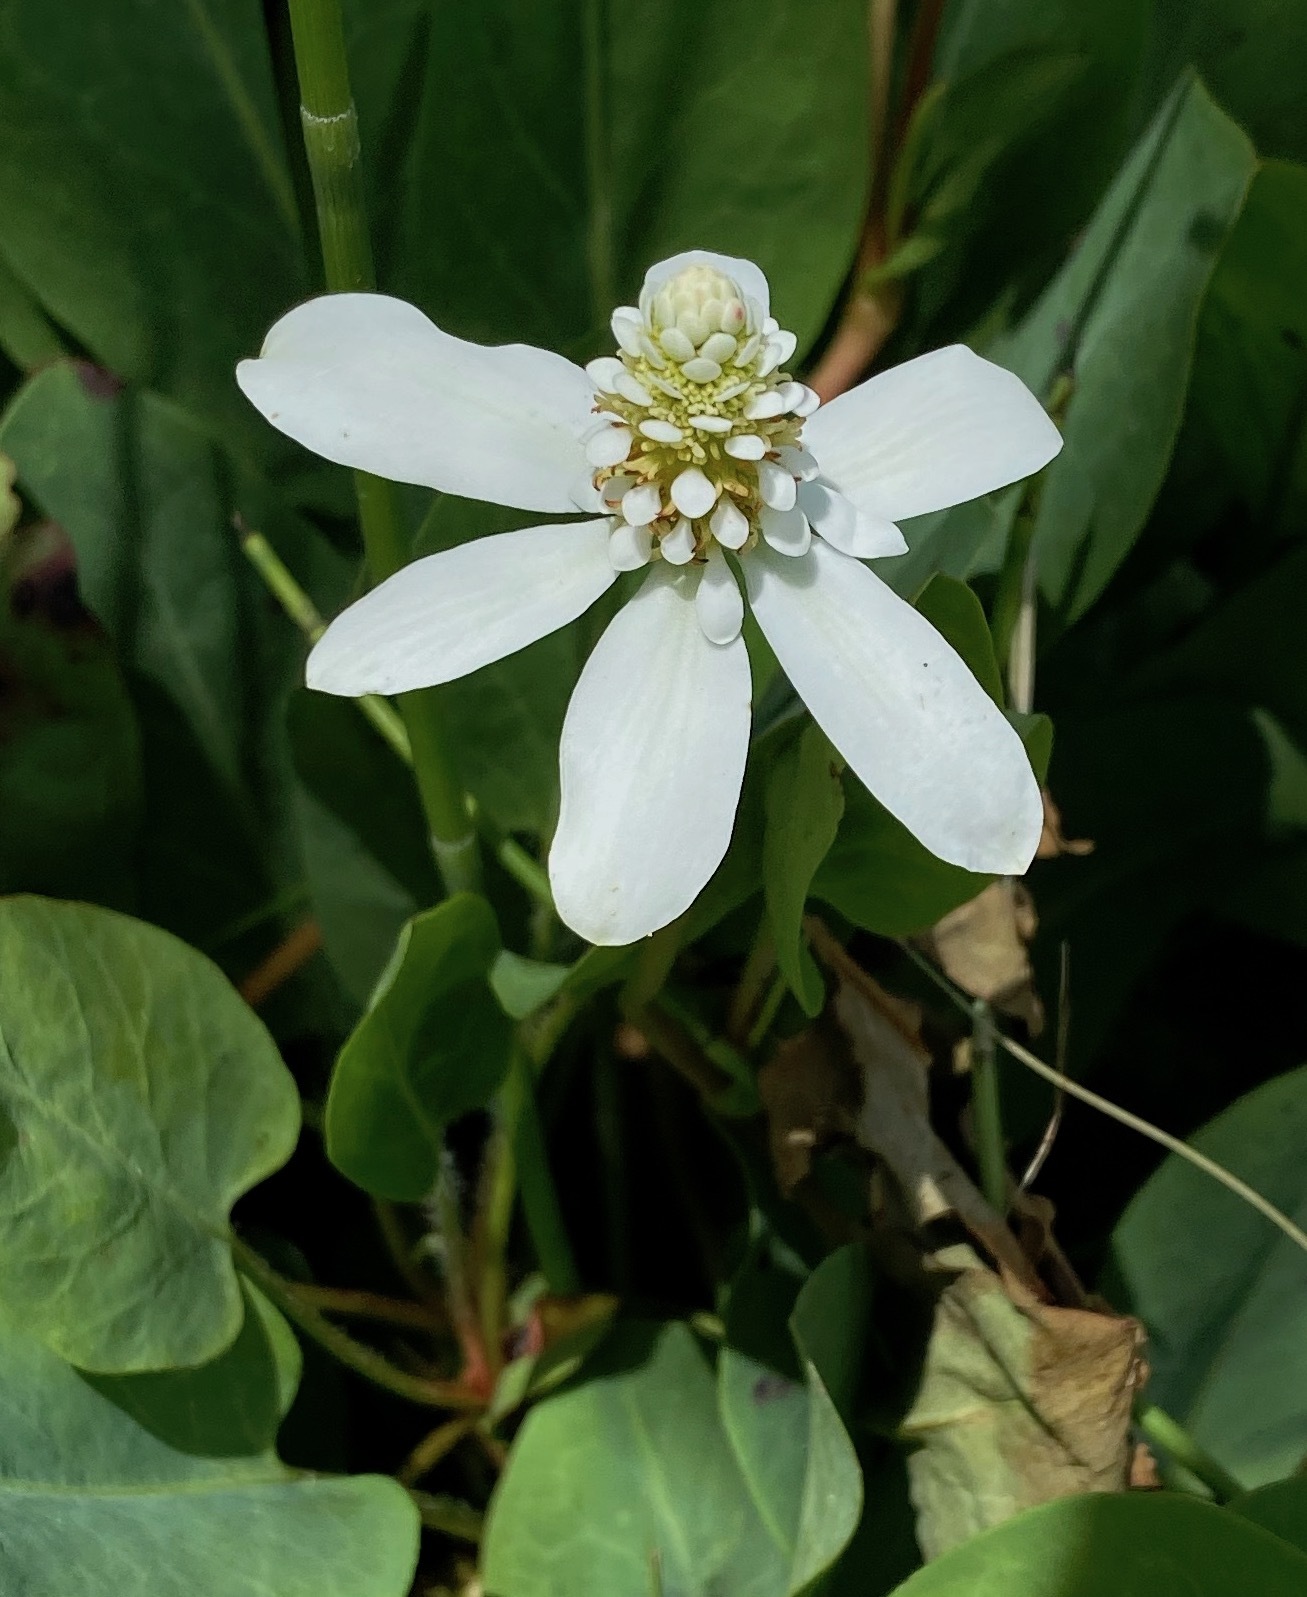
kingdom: Plantae
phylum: Tracheophyta
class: Magnoliopsida
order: Piperales
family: Saururaceae
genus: Anemopsis
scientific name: Anemopsis californica
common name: Apache-beads
